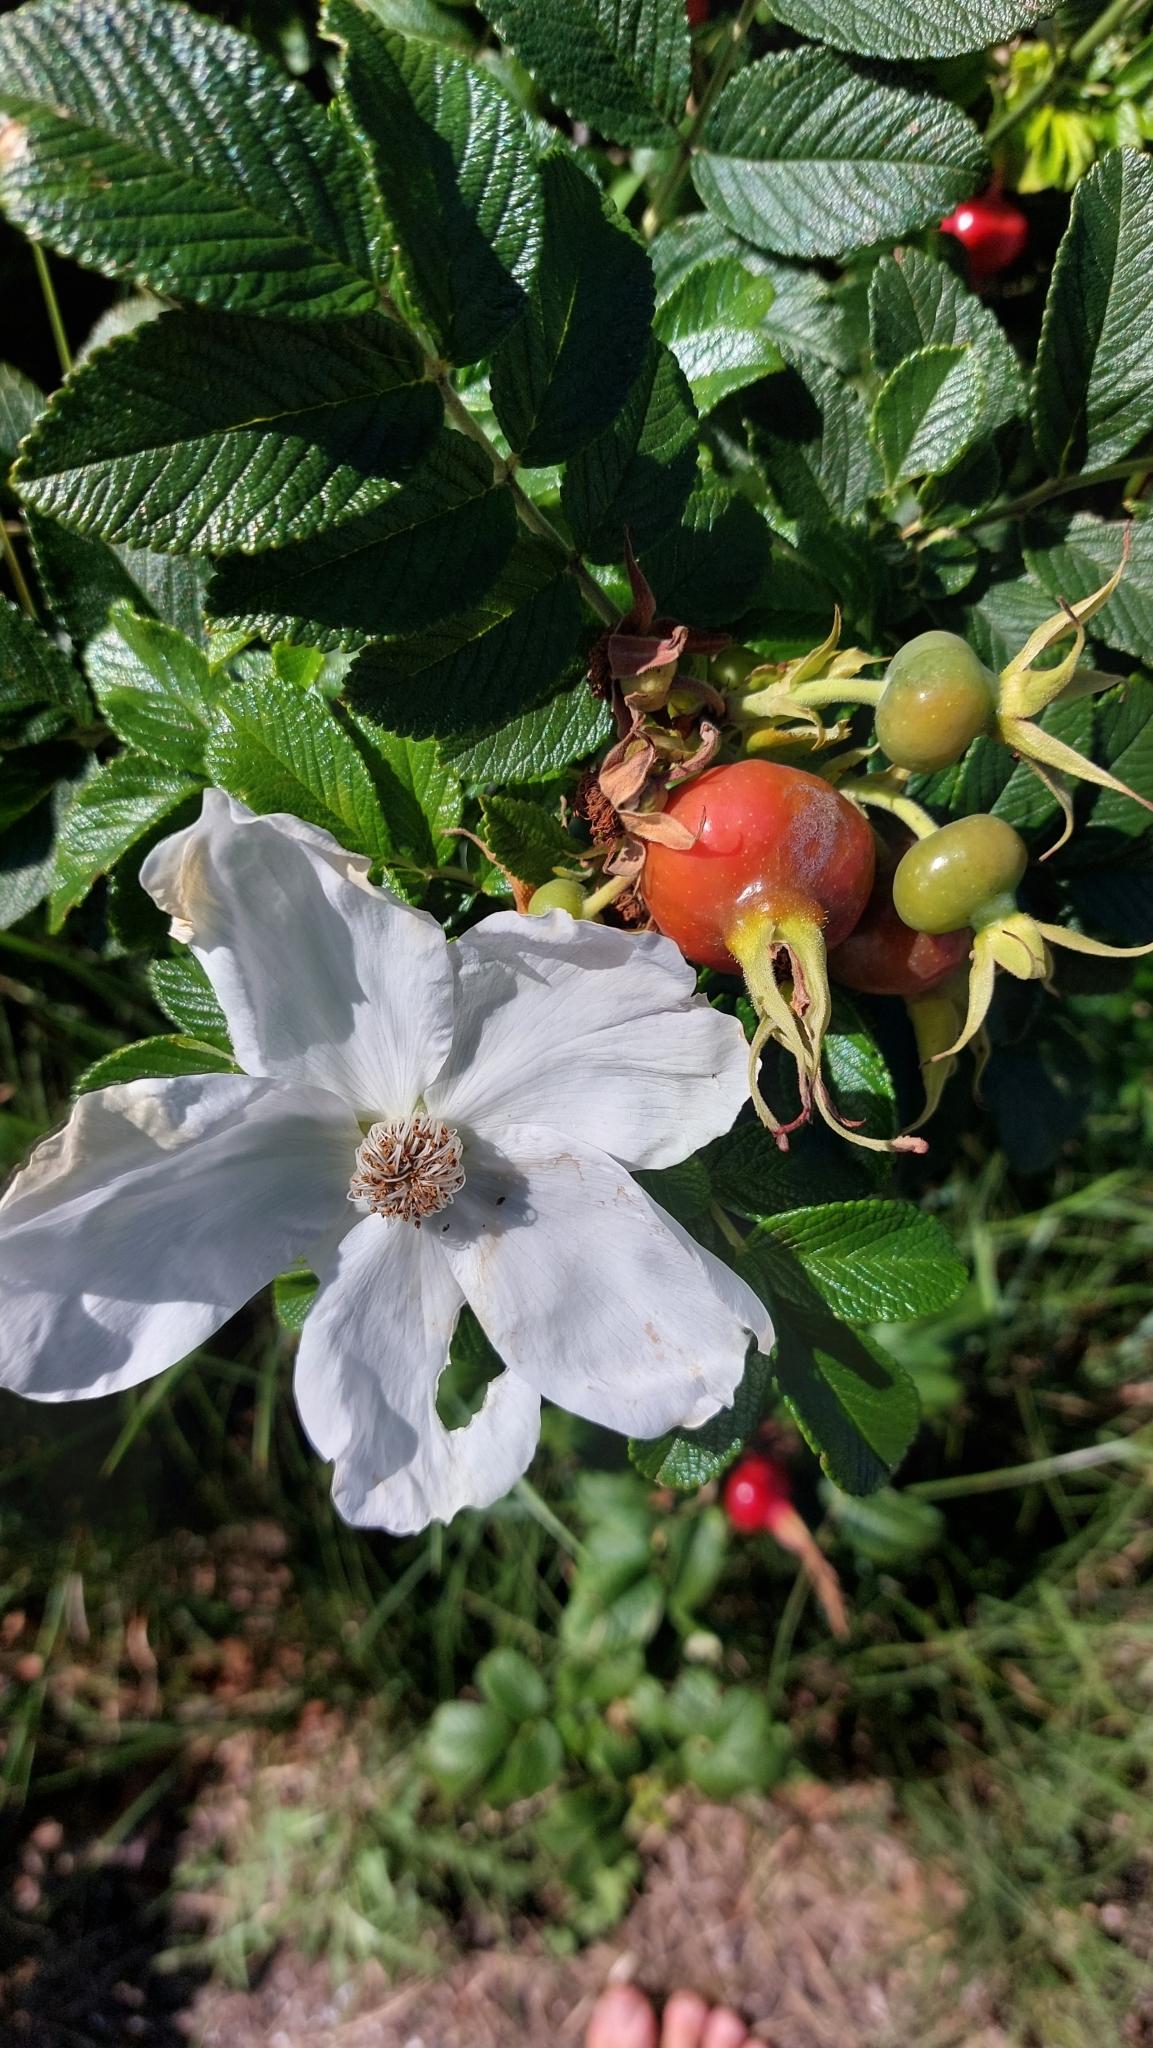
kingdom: Plantae
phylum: Tracheophyta
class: Magnoliopsida
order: Rosales
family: Rosaceae
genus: Rosa
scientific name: Rosa rugosa
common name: Japanese rose
